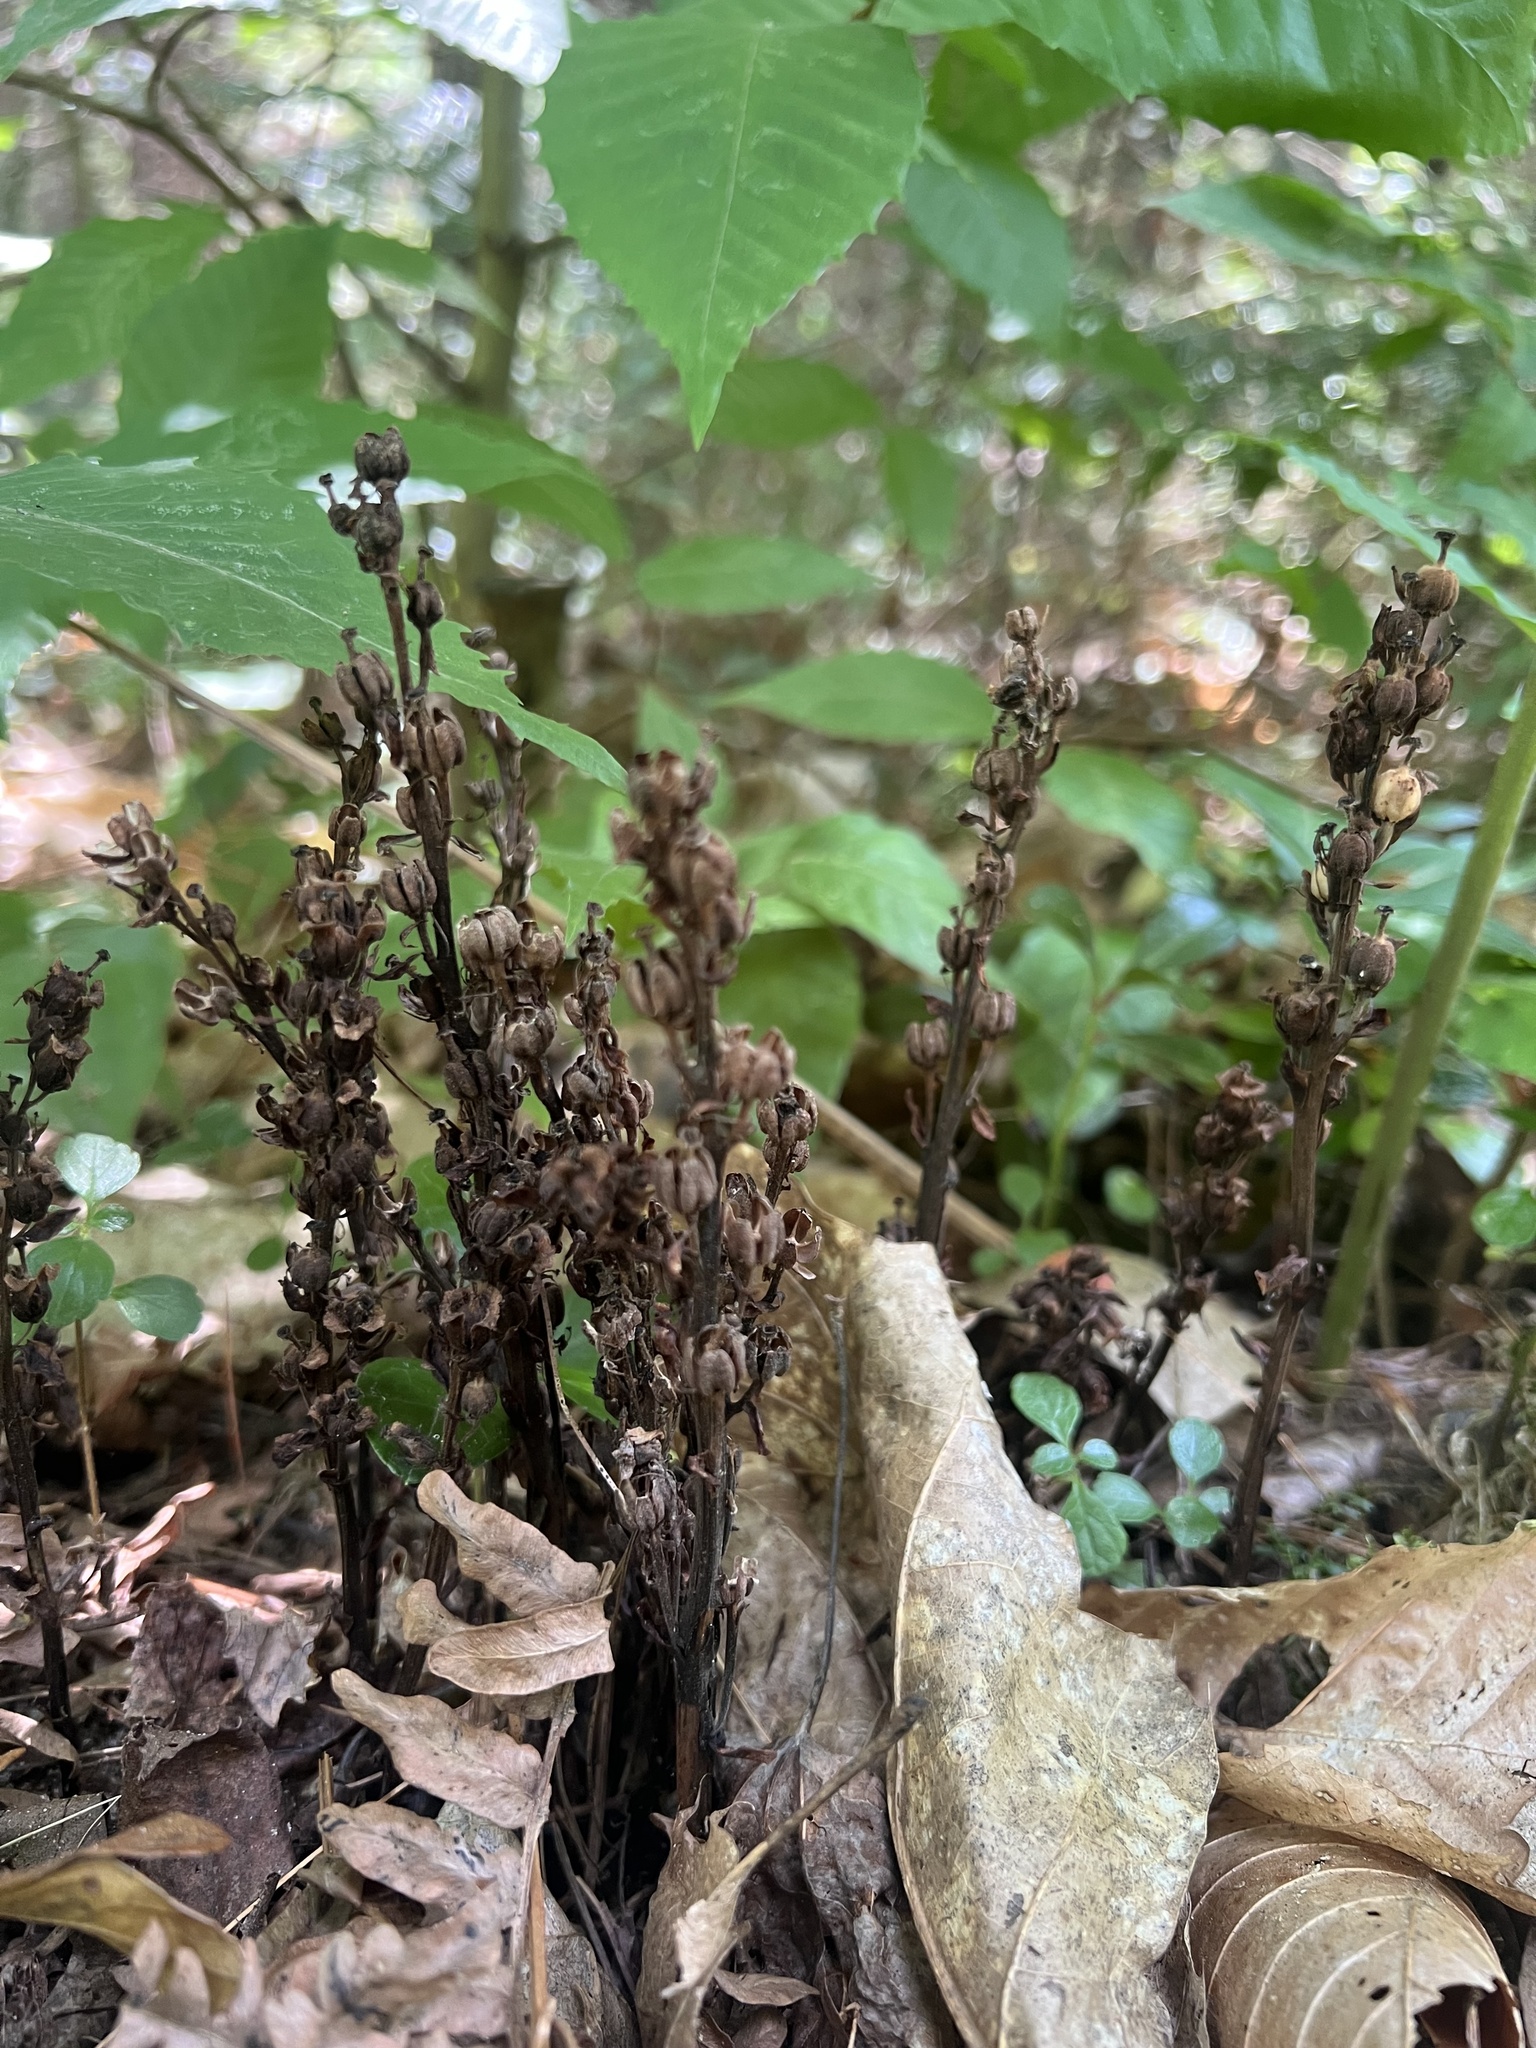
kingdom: Plantae
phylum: Tracheophyta
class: Magnoliopsida
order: Ericales
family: Ericaceae
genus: Hypopitys
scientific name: Hypopitys monotropa
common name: Yellow bird's-nest
